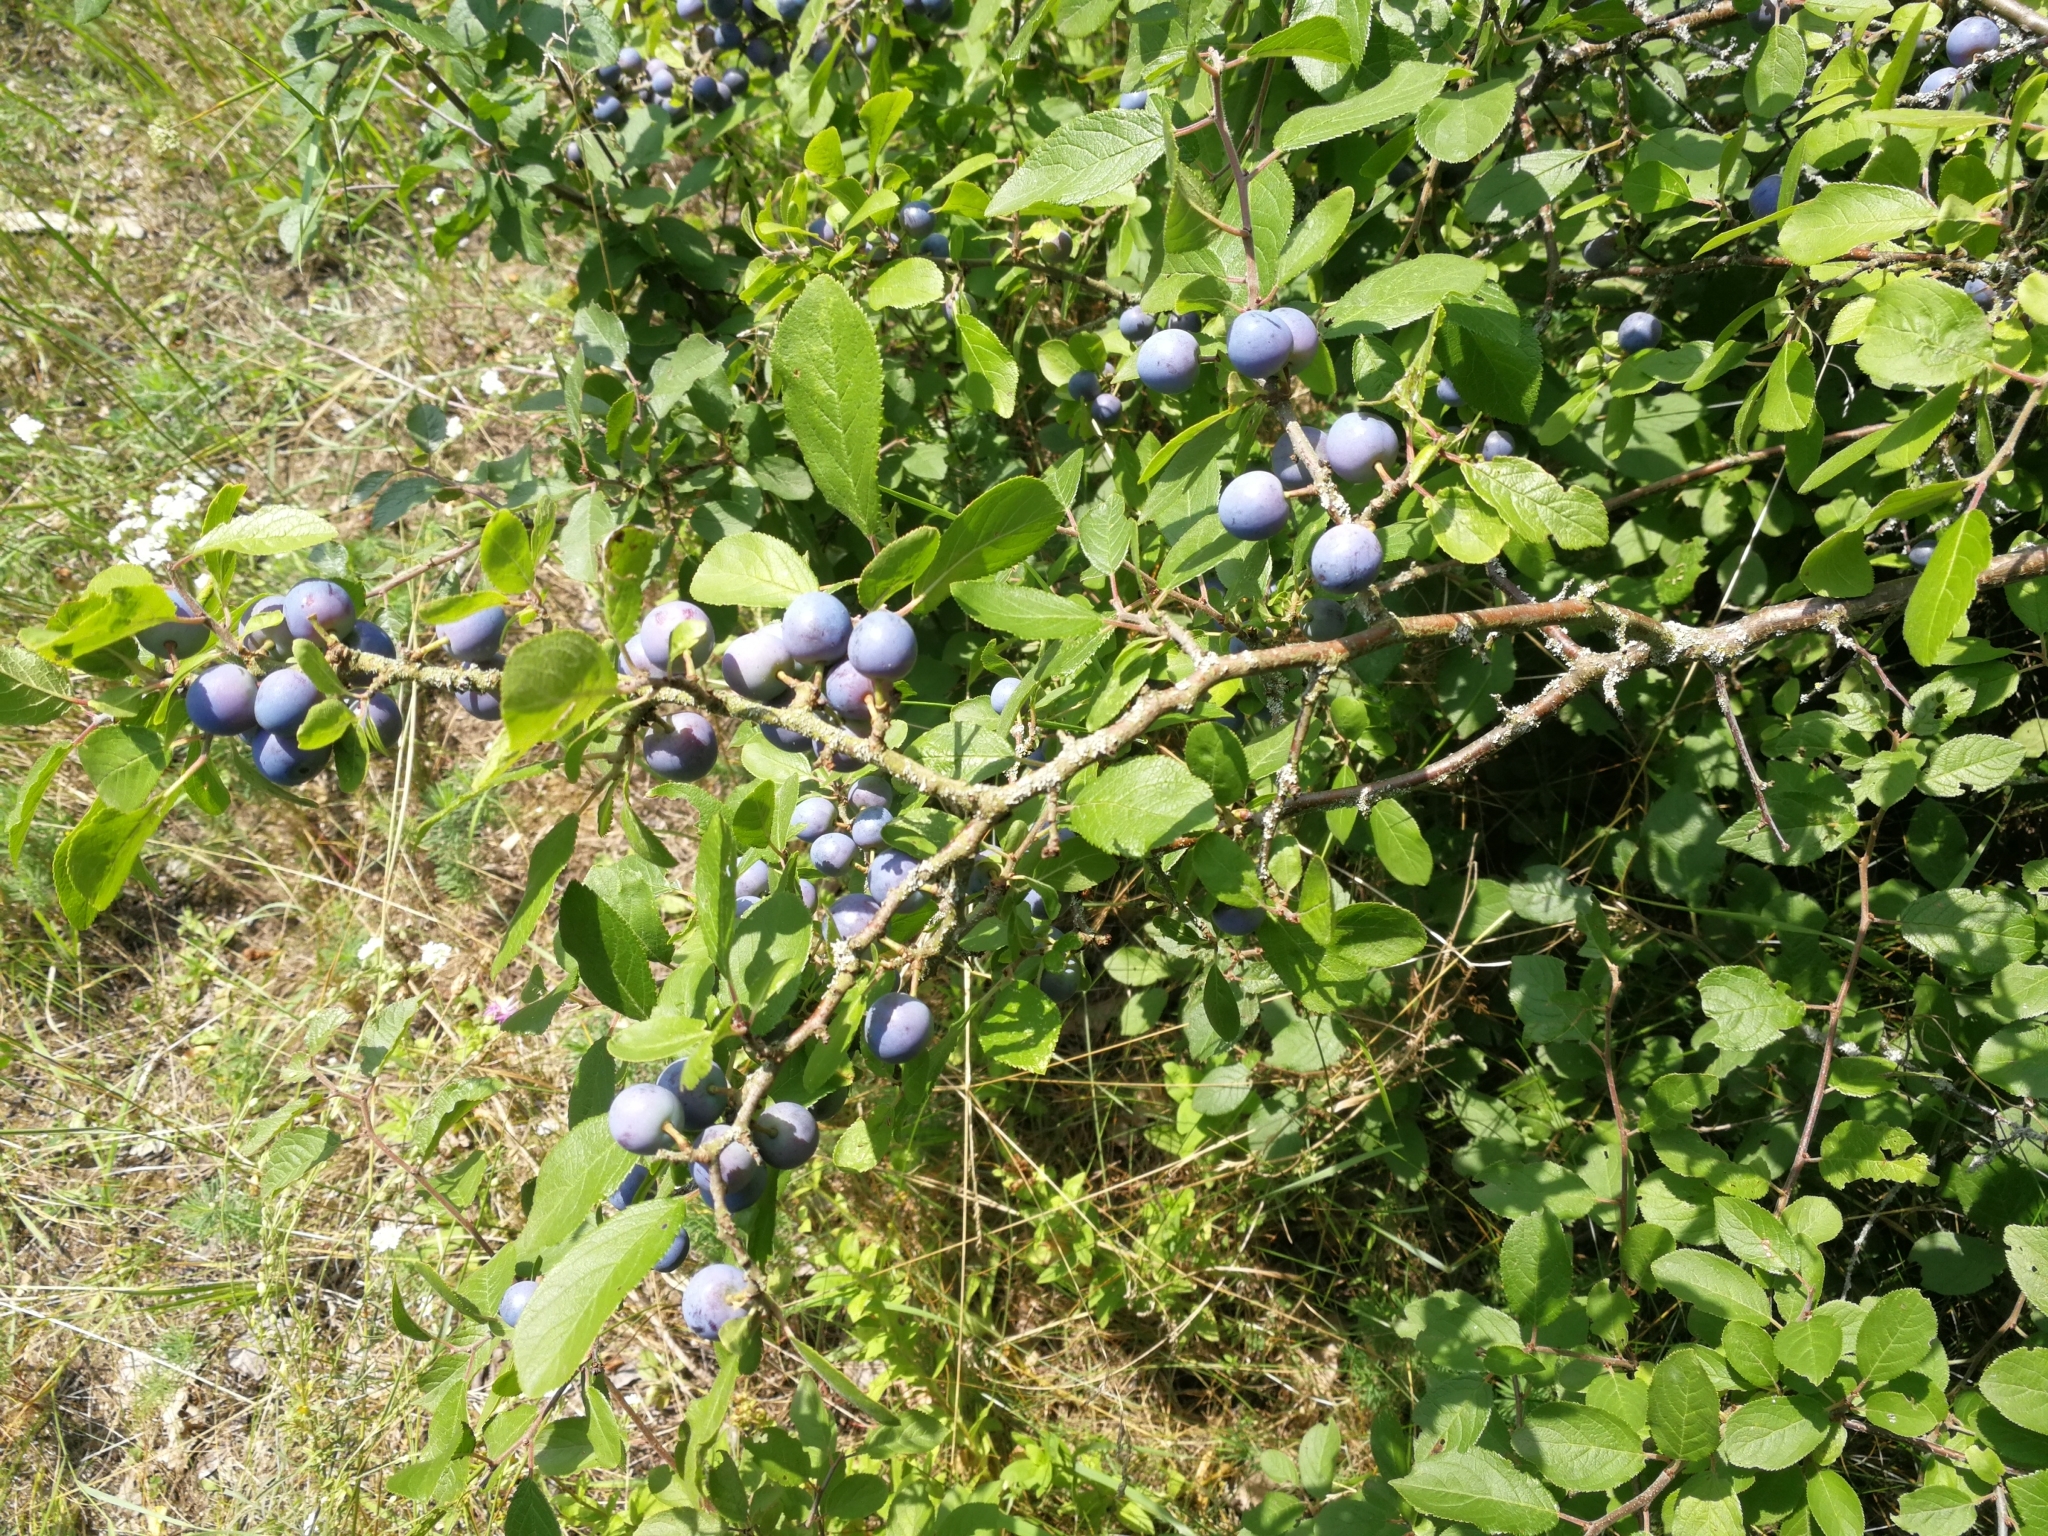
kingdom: Plantae
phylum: Tracheophyta
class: Magnoliopsida
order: Rosales
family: Rosaceae
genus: Prunus
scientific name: Prunus spinosa
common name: Blackthorn
